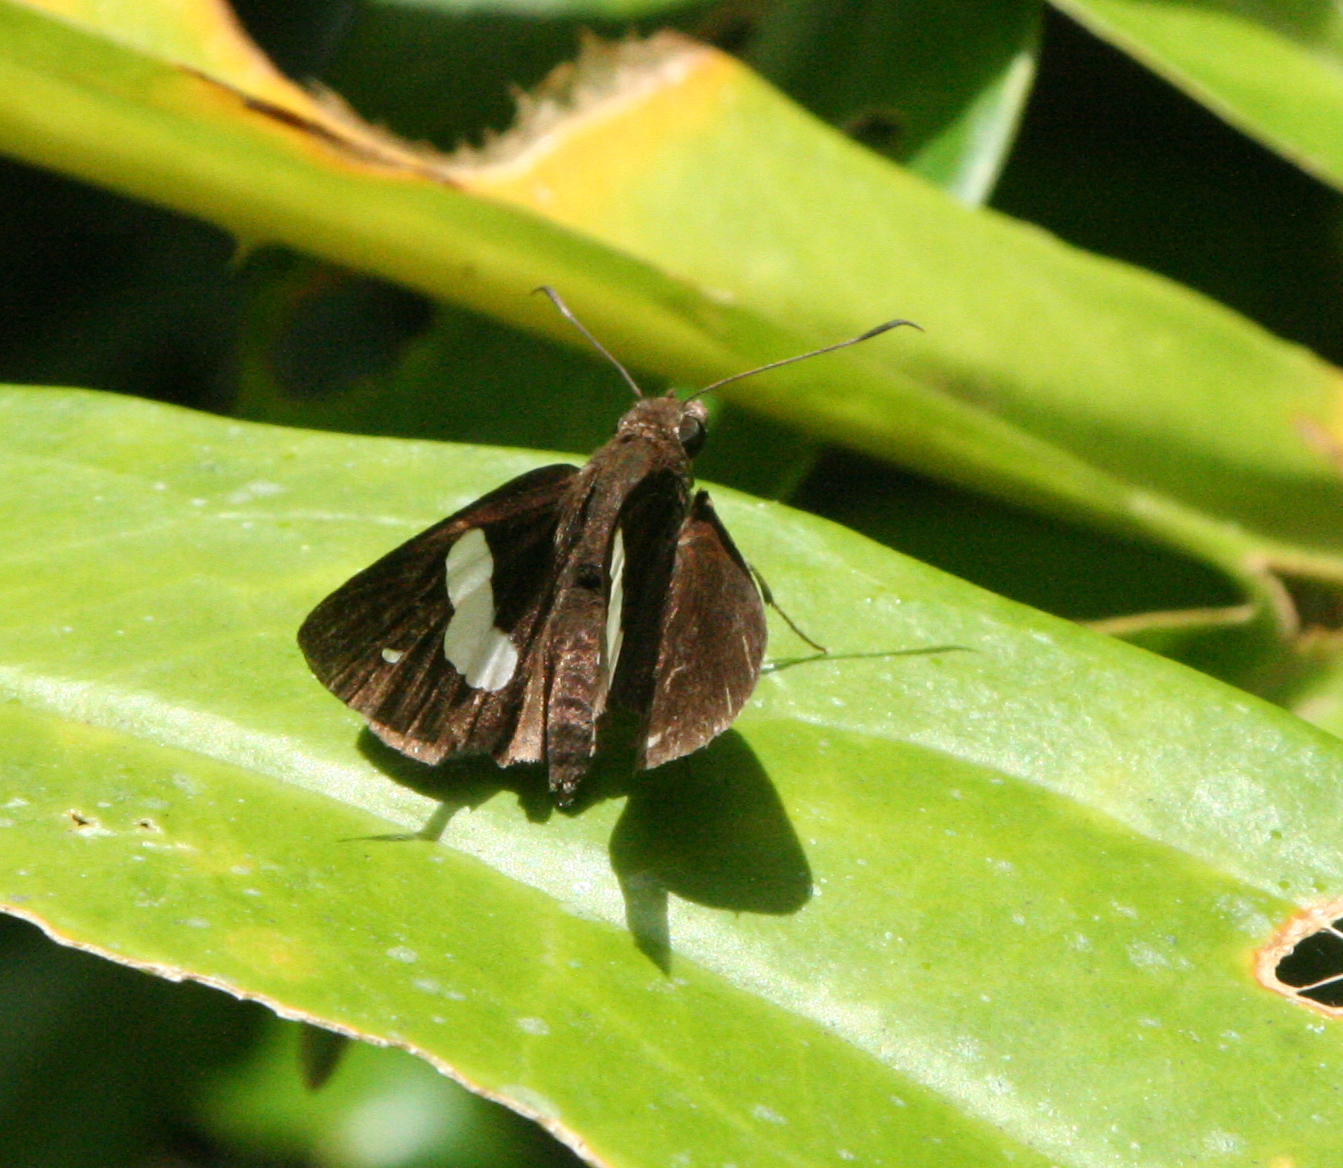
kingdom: Animalia
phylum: Arthropoda
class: Insecta
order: Lepidoptera
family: Hesperiidae
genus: Notocrypta
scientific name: Notocrypta paralysos
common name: Common banded demon
